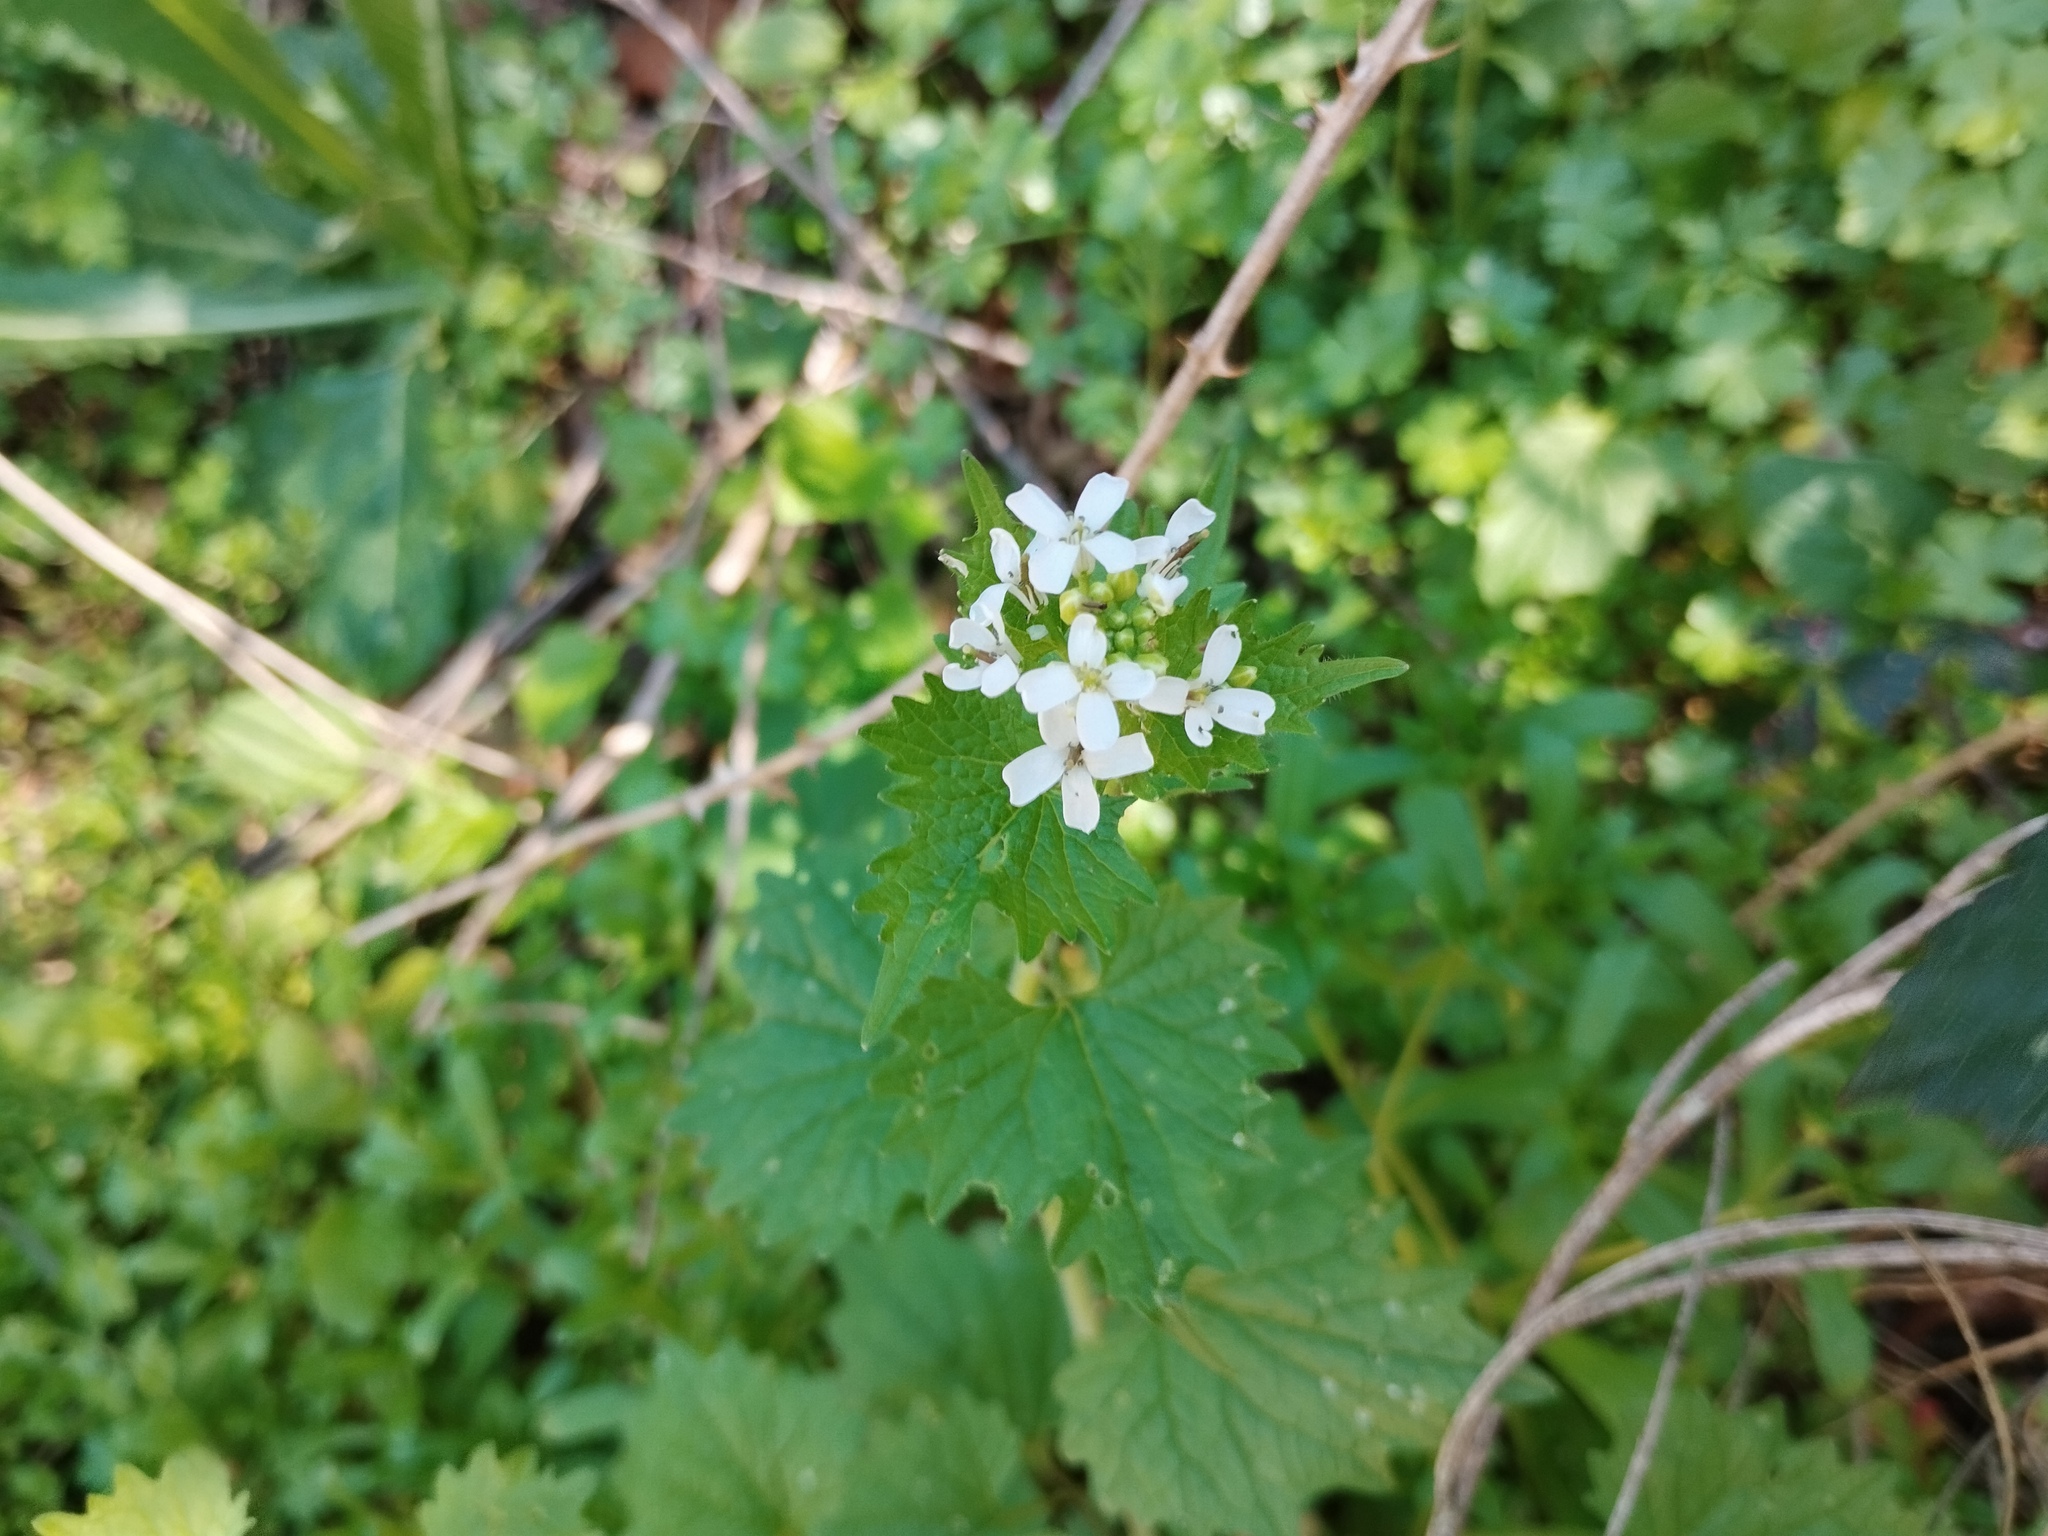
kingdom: Plantae
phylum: Tracheophyta
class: Magnoliopsida
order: Brassicales
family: Brassicaceae
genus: Alliaria
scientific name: Alliaria petiolata
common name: Garlic mustard
